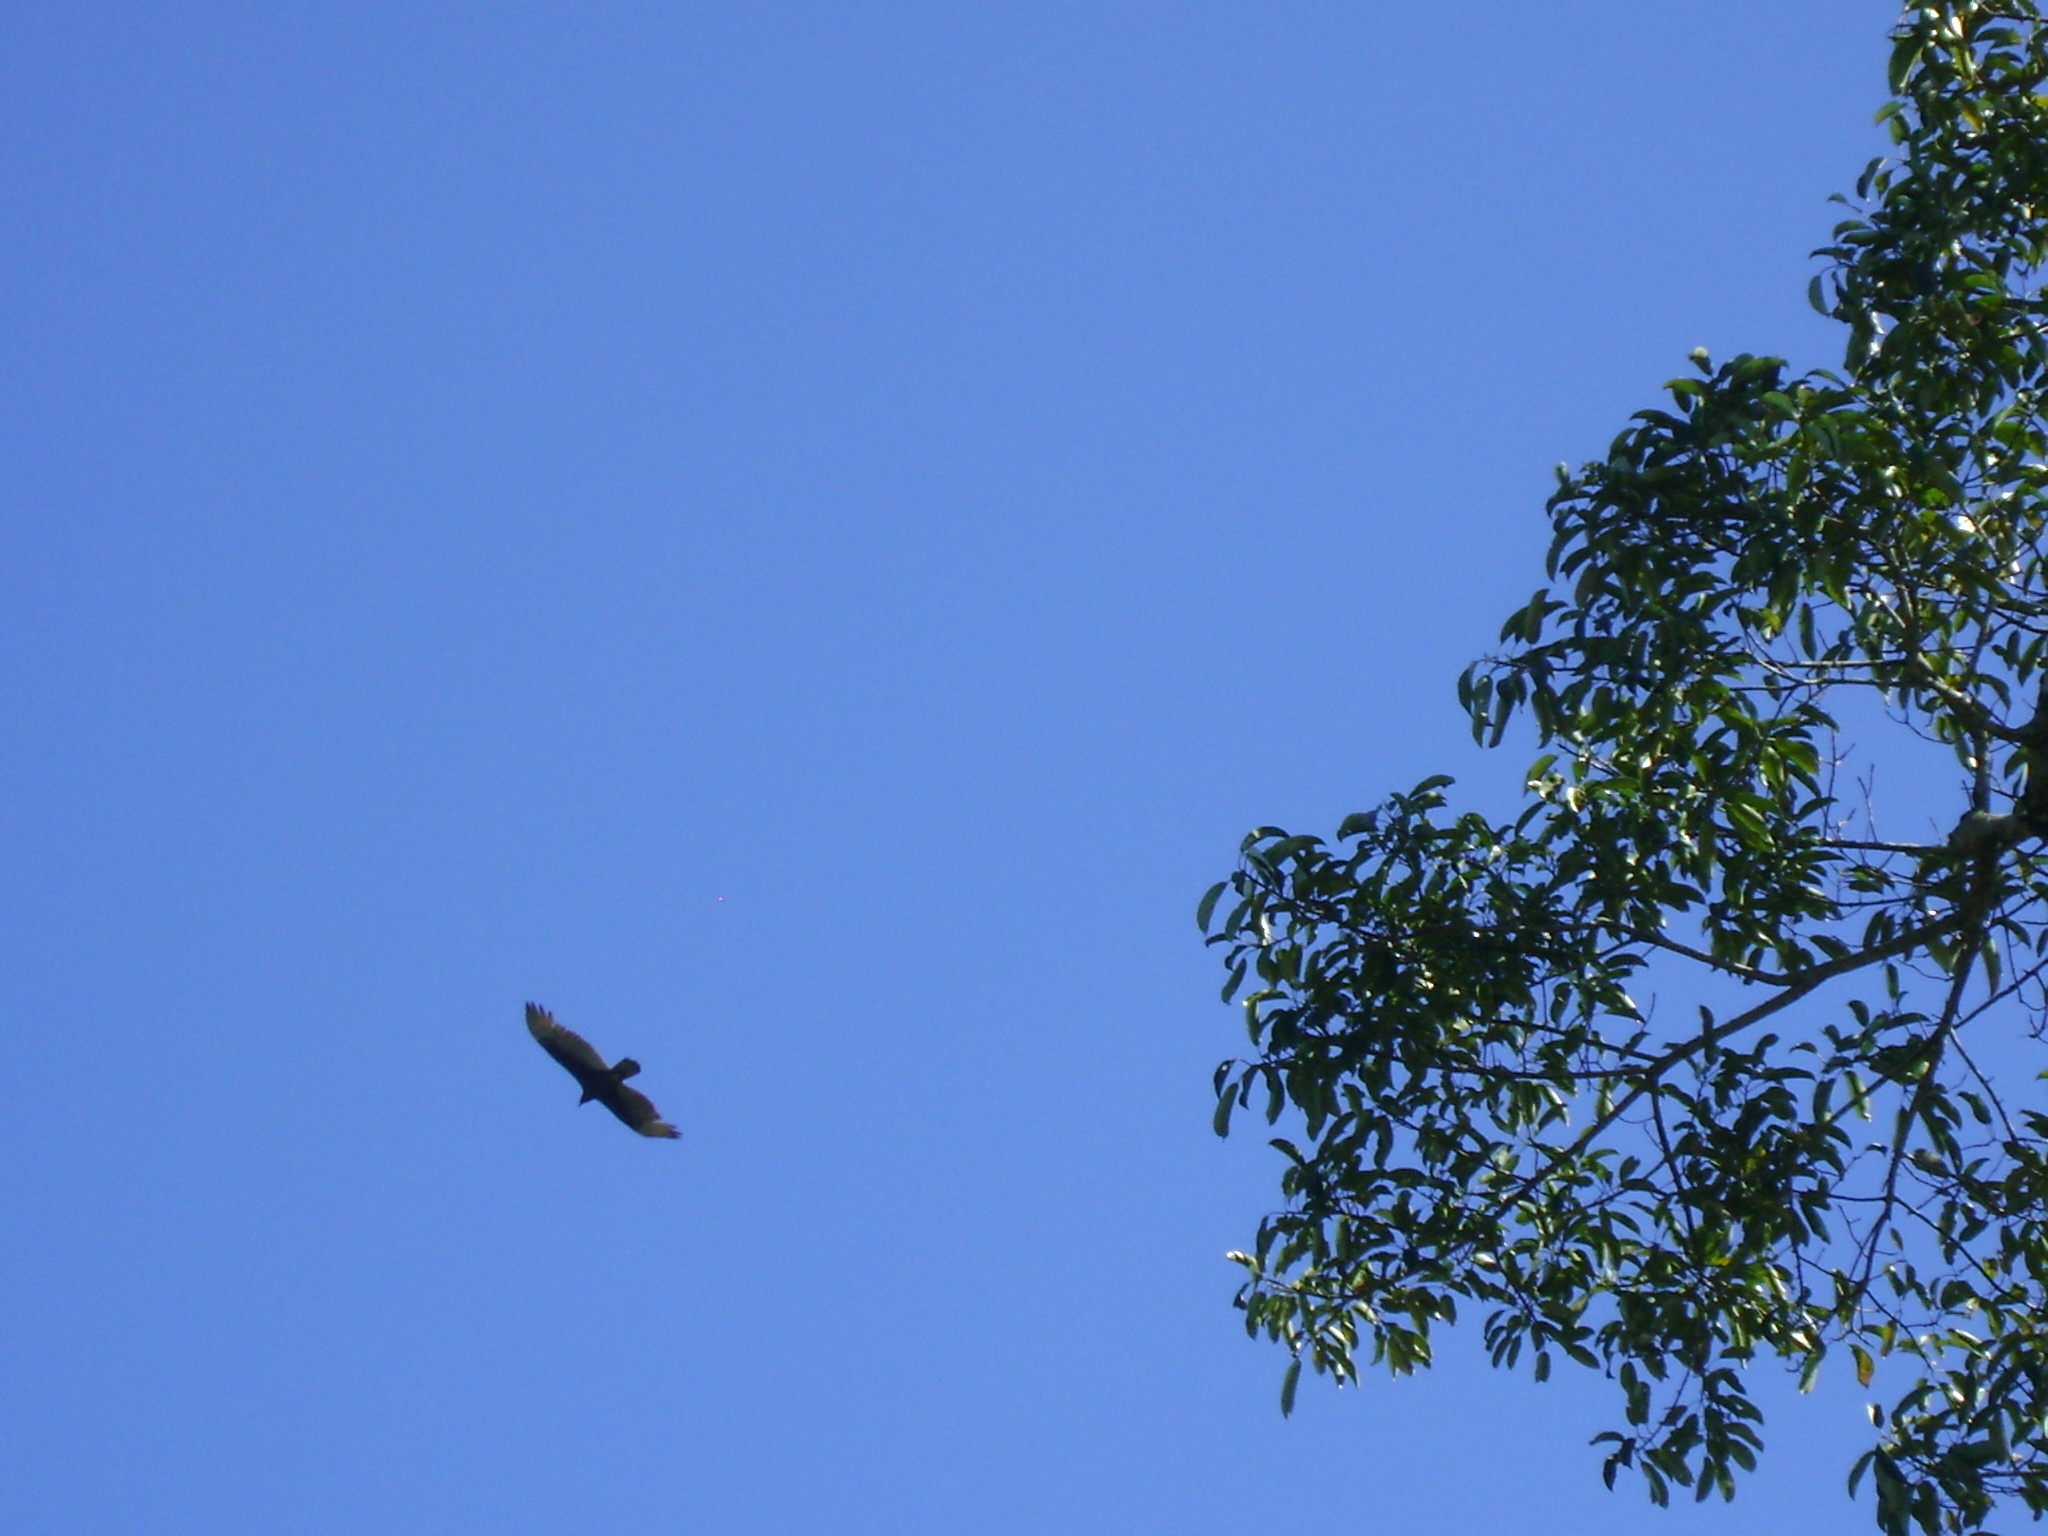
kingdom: Animalia
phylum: Chordata
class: Aves
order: Accipitriformes
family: Cathartidae
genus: Cathartes
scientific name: Cathartes aura
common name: Turkey vulture
